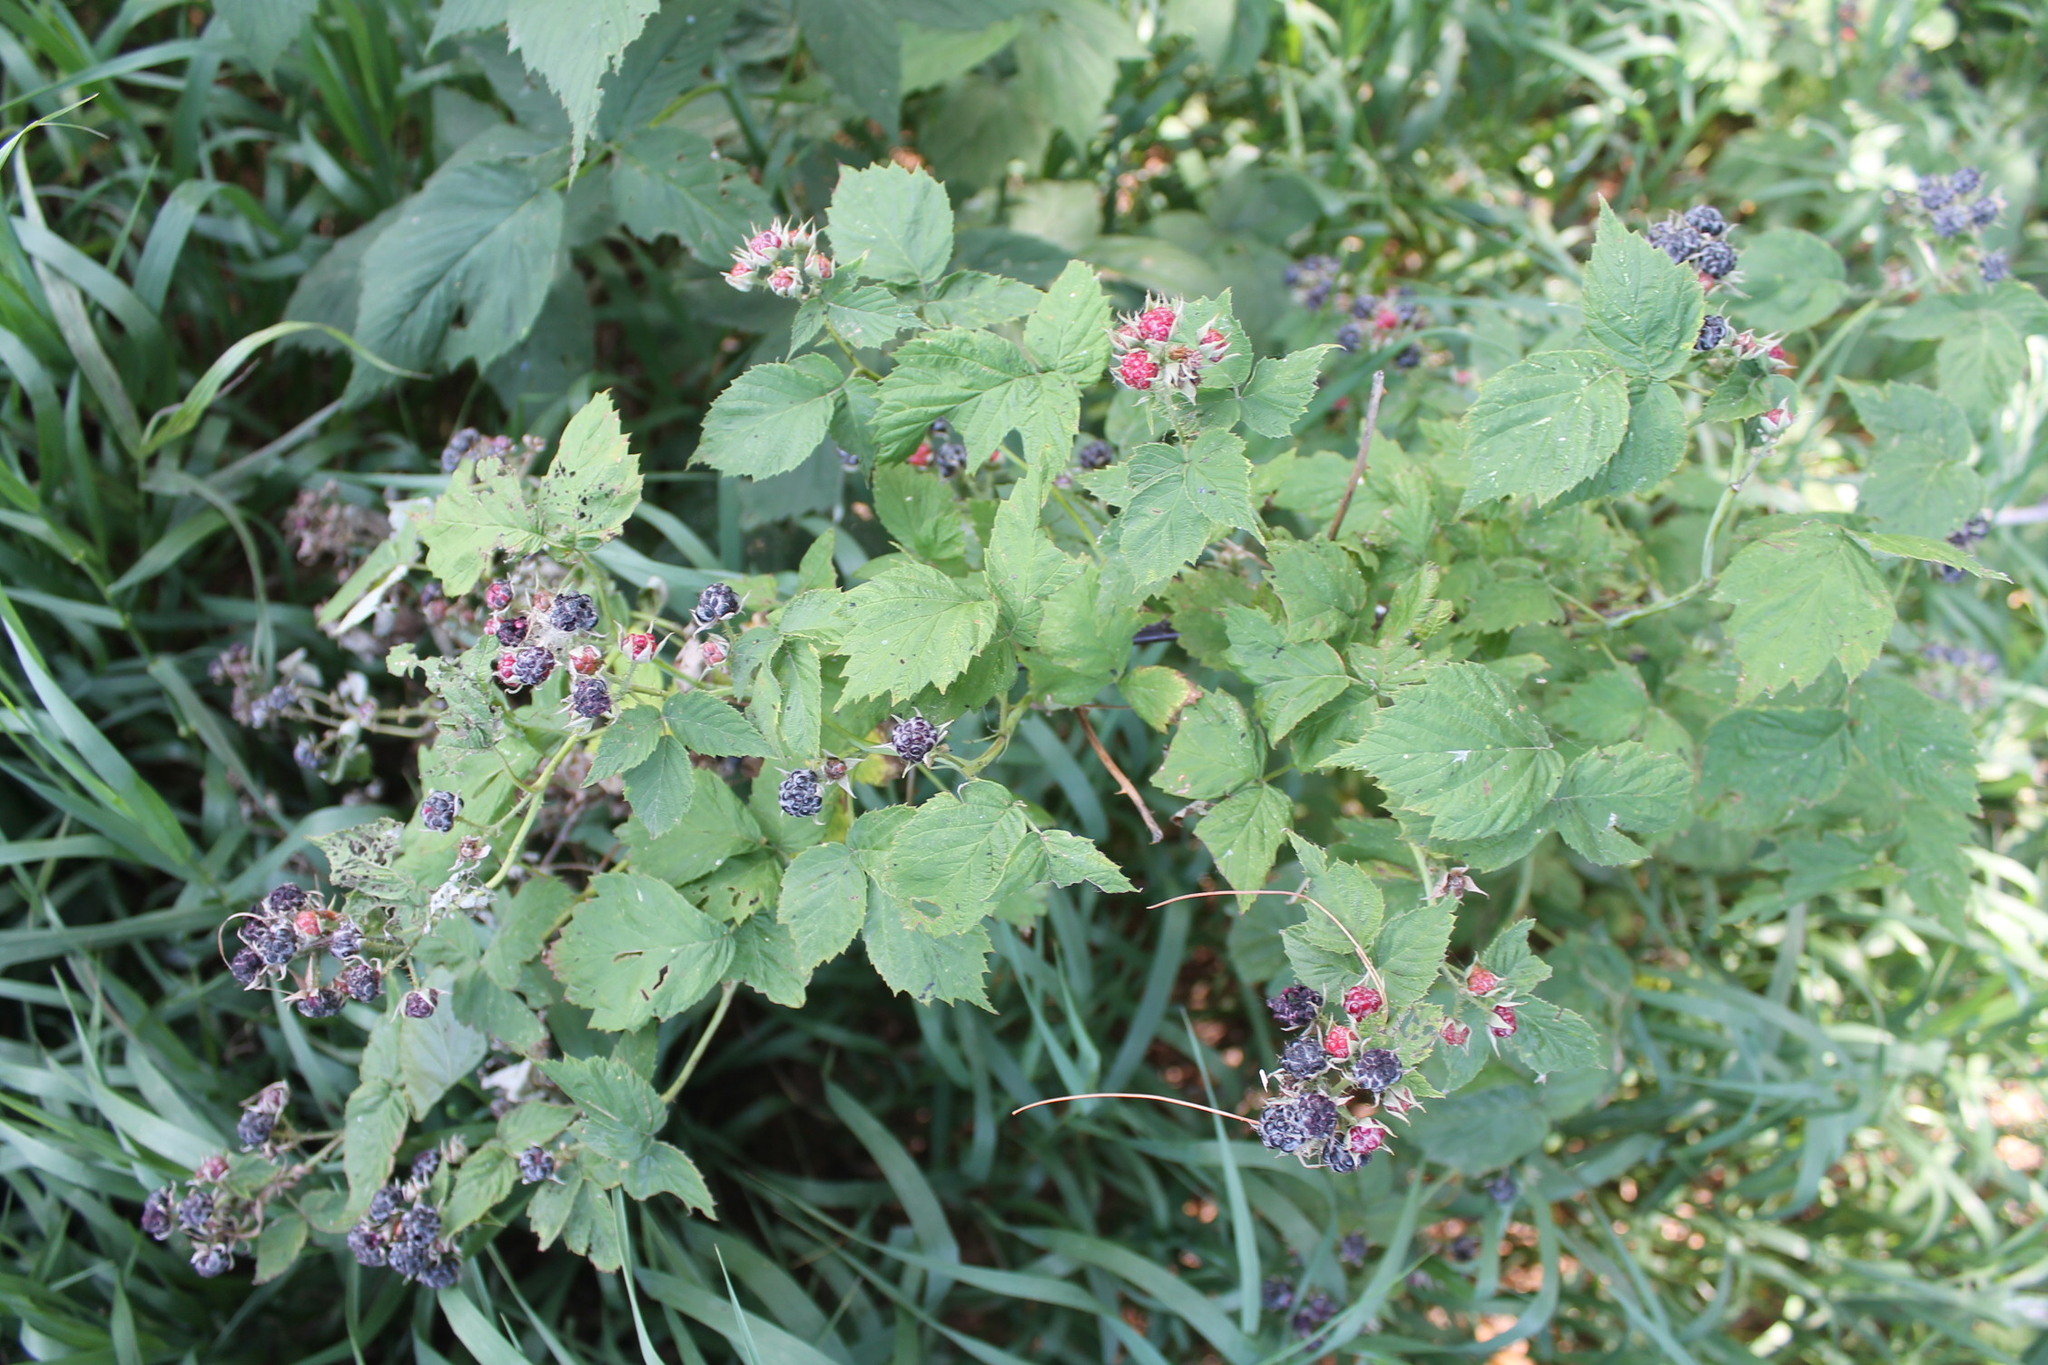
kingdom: Plantae
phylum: Tracheophyta
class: Magnoliopsida
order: Rosales
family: Rosaceae
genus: Rubus
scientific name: Rubus occidentalis
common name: Black raspberry
